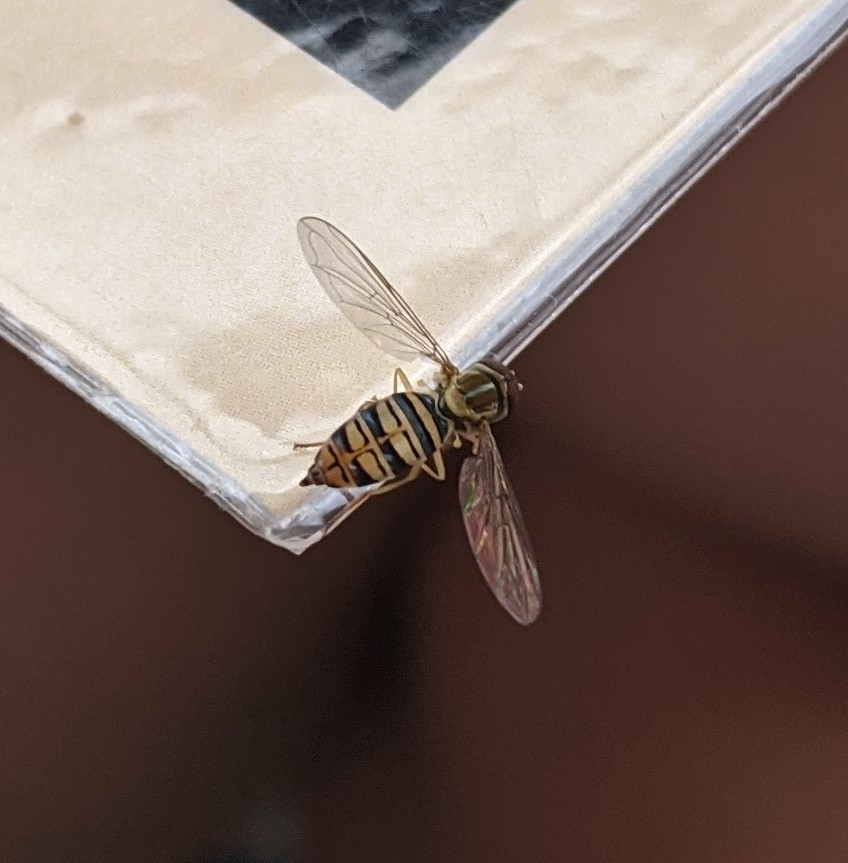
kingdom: Animalia
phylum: Arthropoda
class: Insecta
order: Diptera
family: Syrphidae
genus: Toxomerus
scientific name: Toxomerus politus
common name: Maize calligrapher
